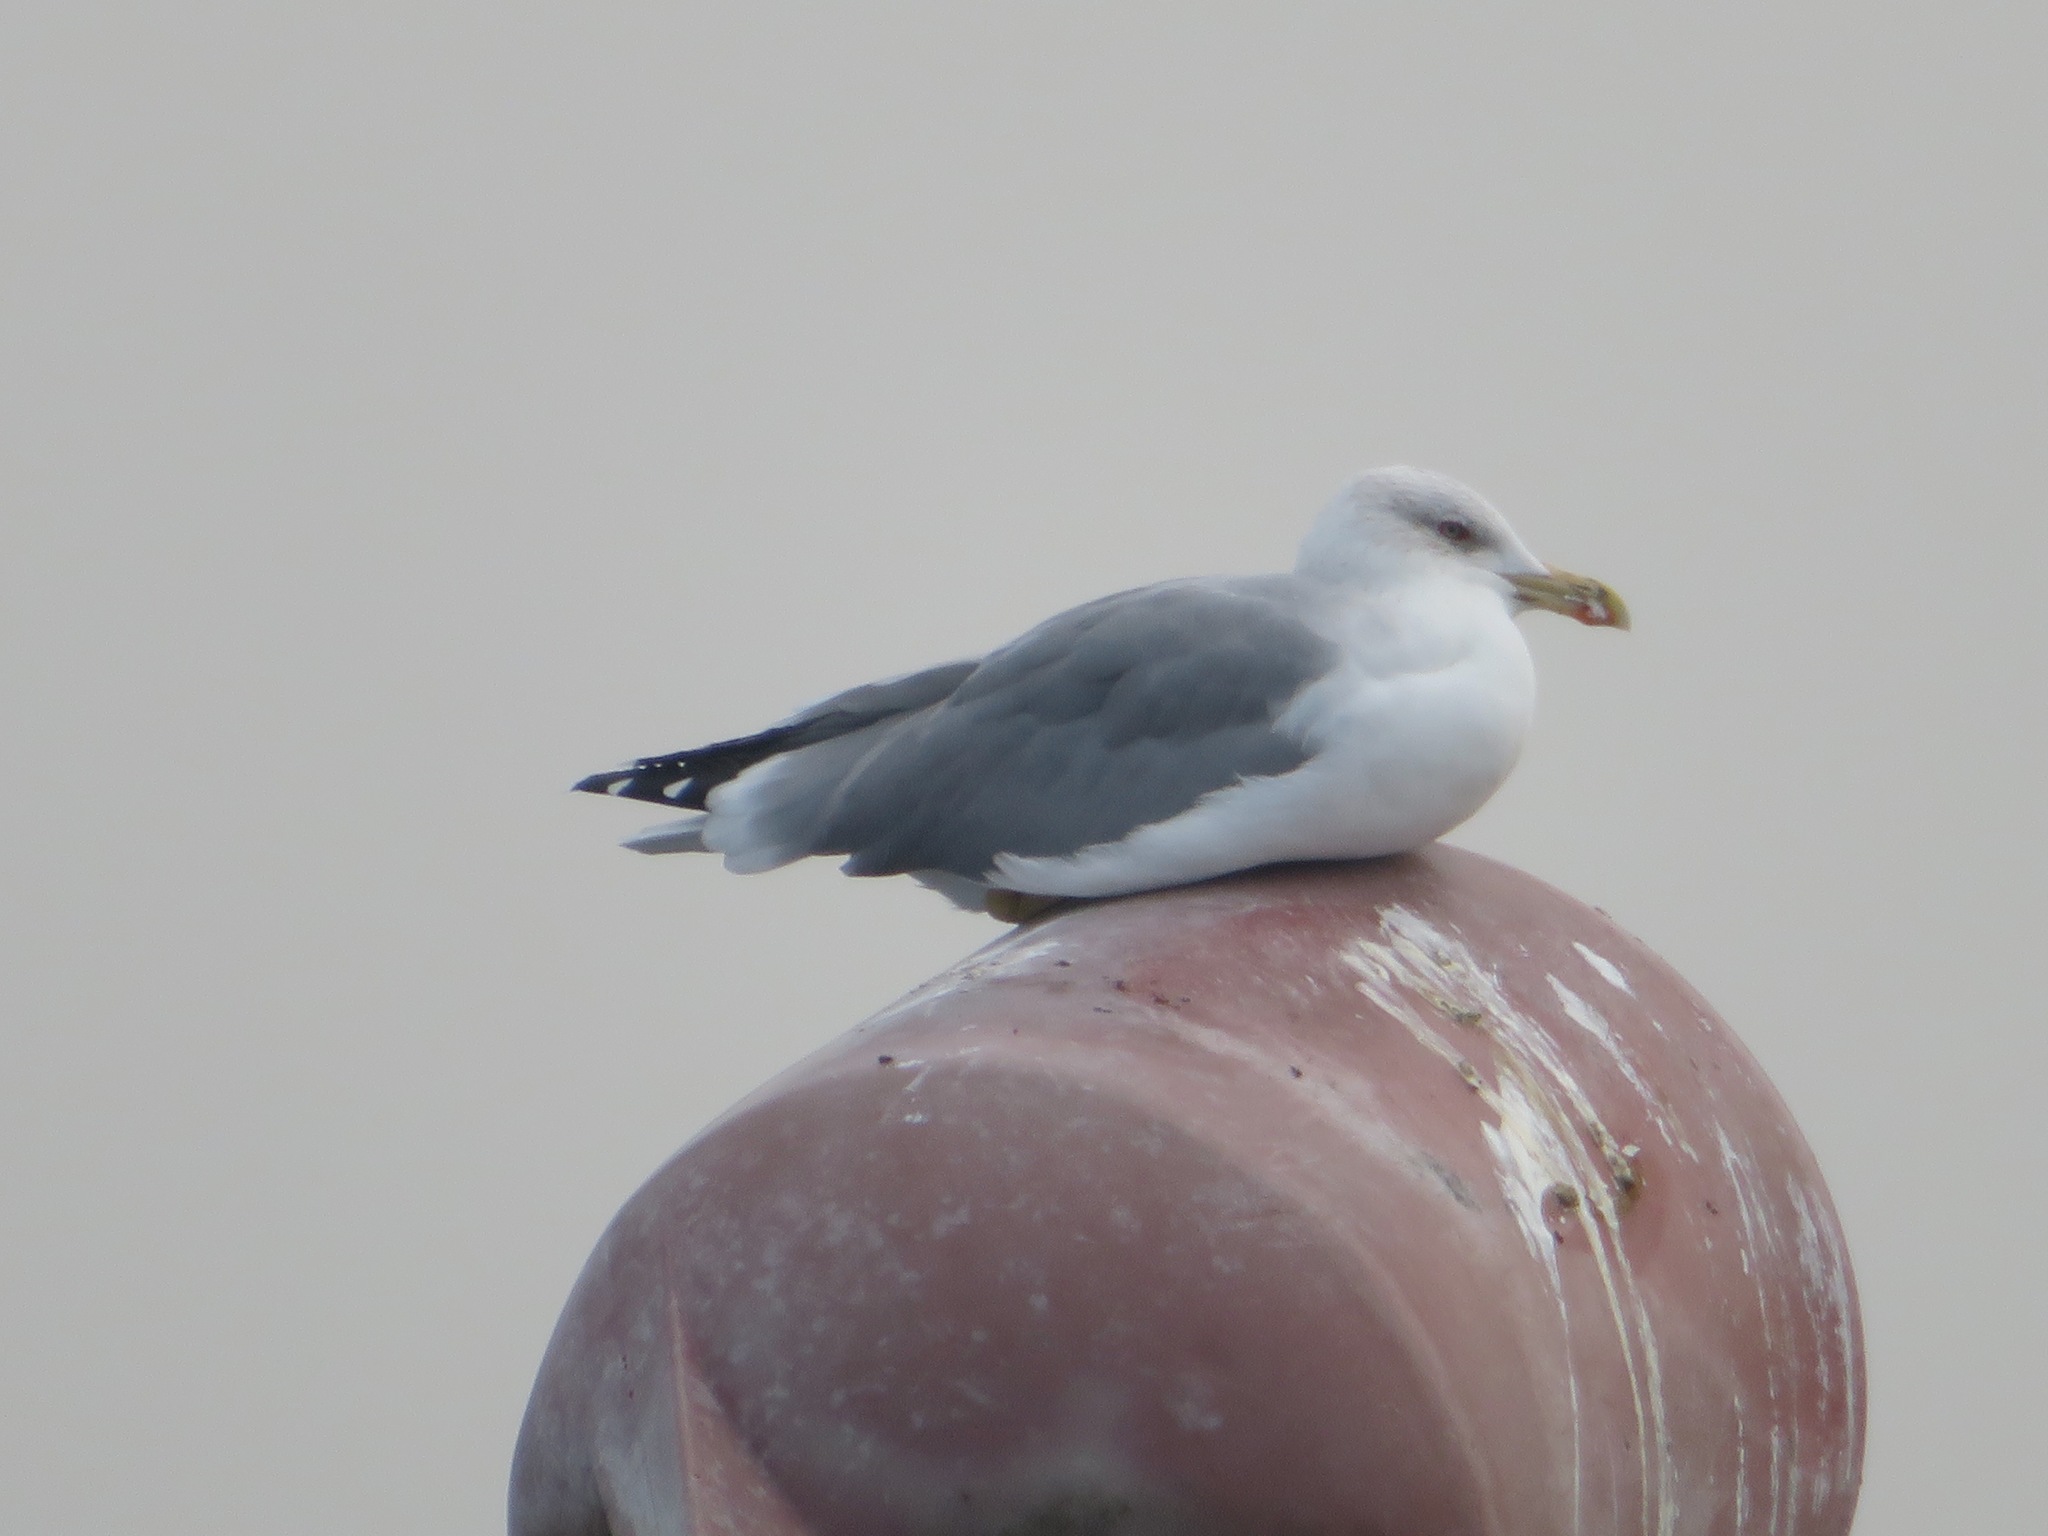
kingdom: Animalia
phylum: Chordata
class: Aves
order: Charadriiformes
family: Laridae
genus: Larus
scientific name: Larus michahellis
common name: Yellow-legged gull
